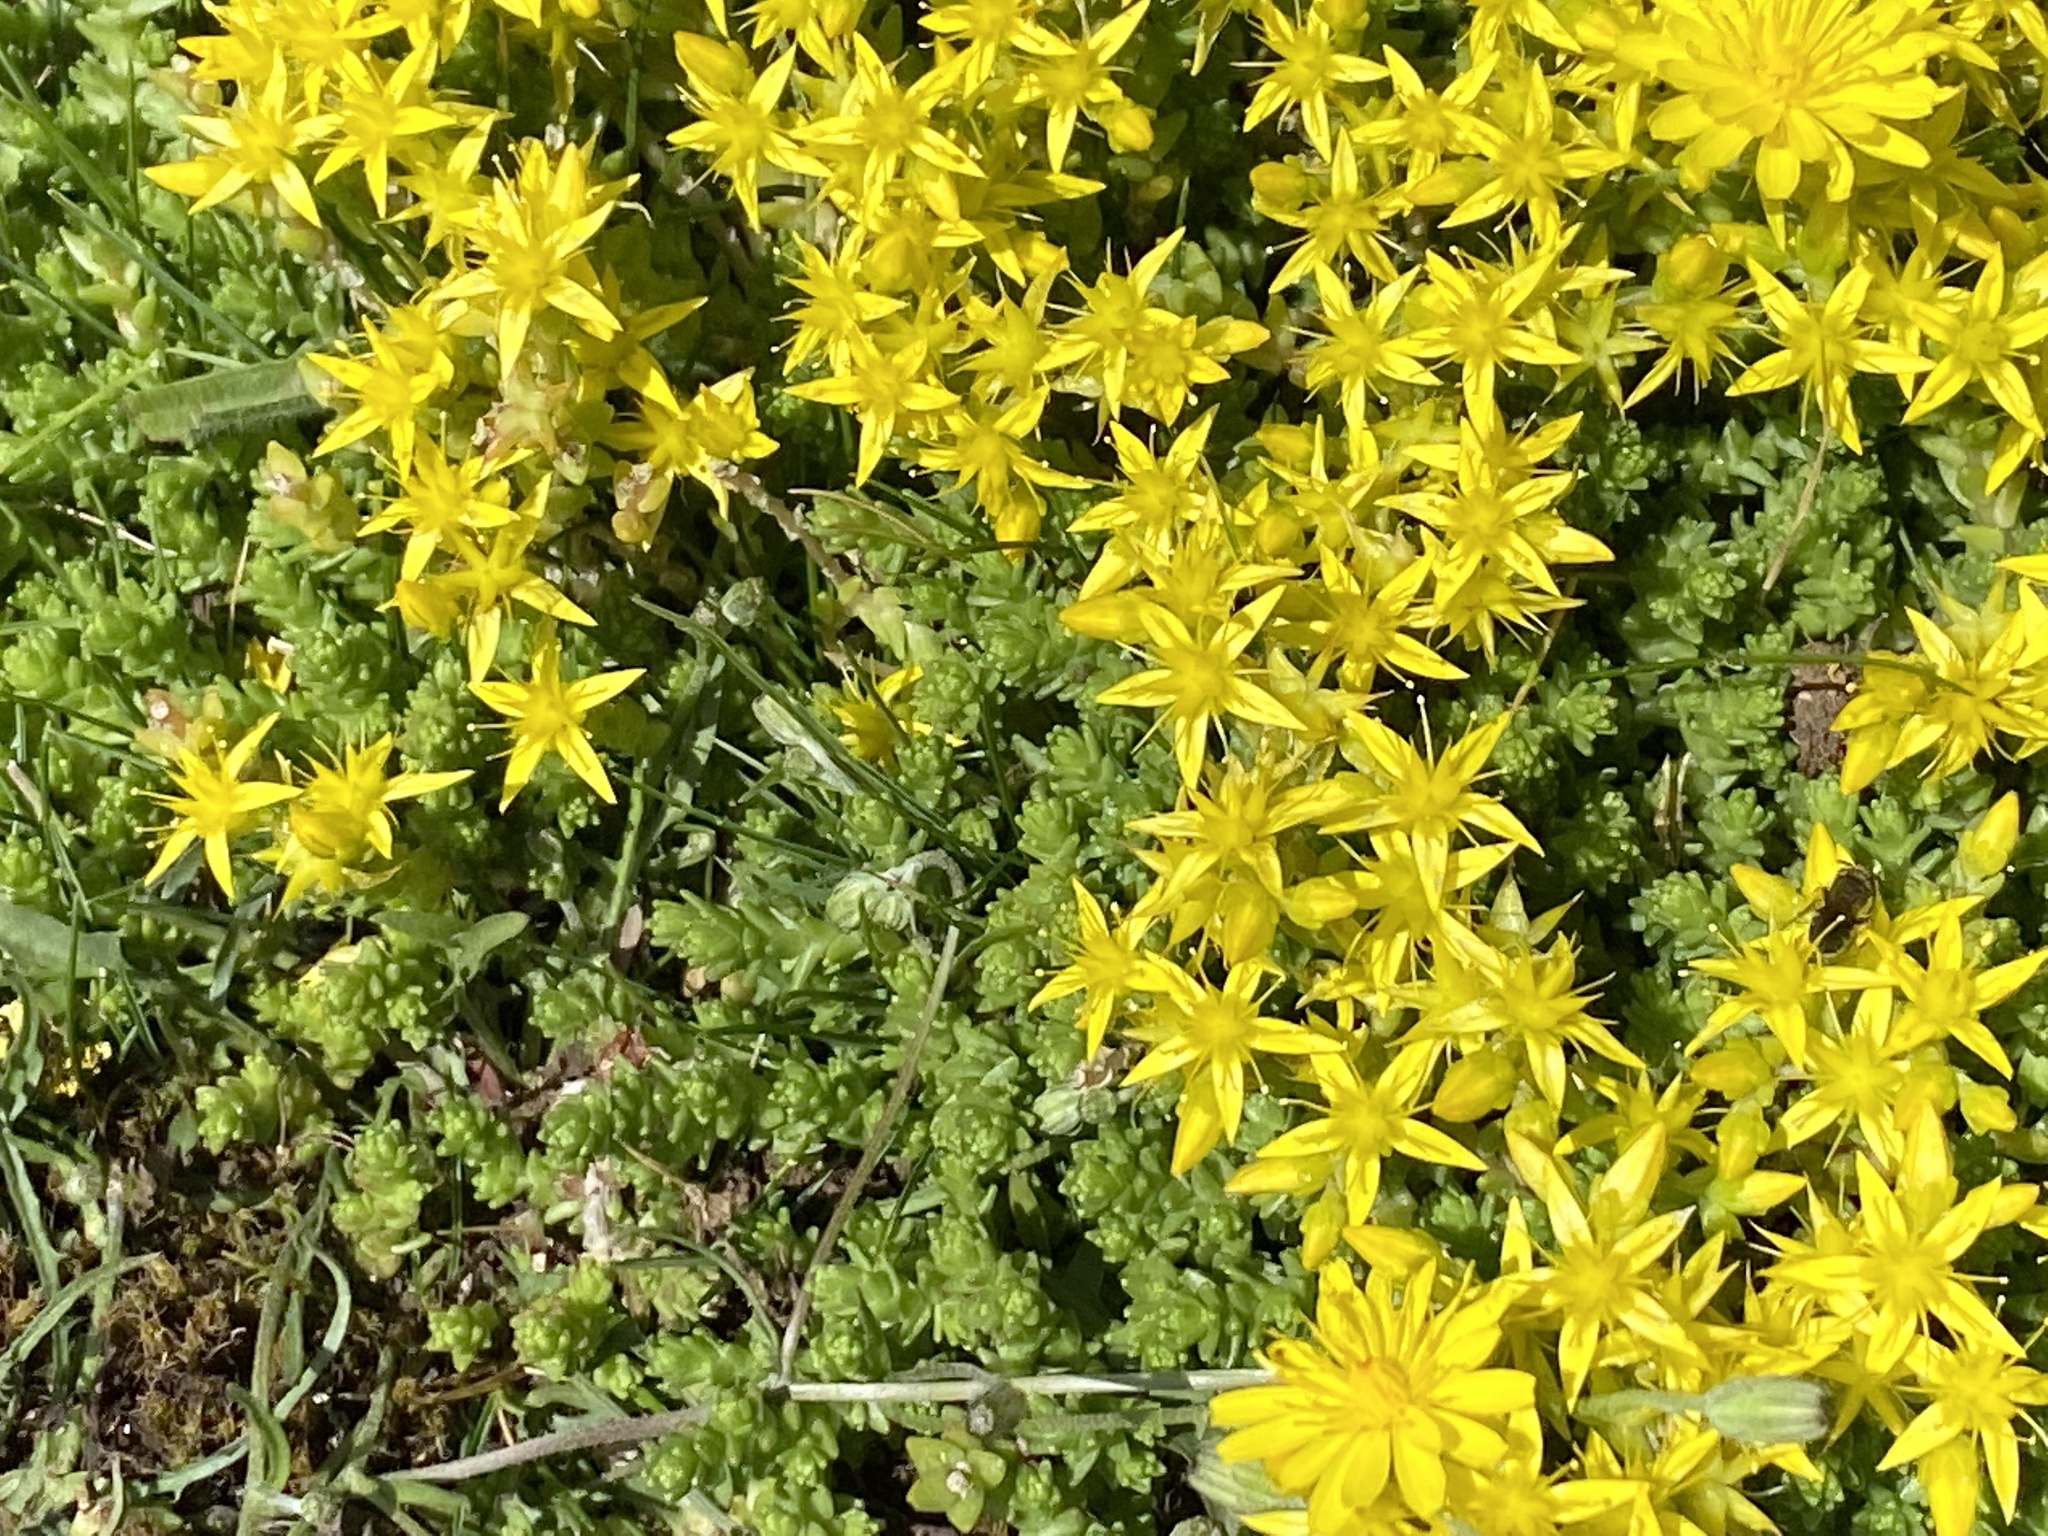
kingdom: Plantae
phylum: Tracheophyta
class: Magnoliopsida
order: Saxifragales
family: Crassulaceae
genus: Sedum
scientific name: Sedum acre
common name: Biting stonecrop
